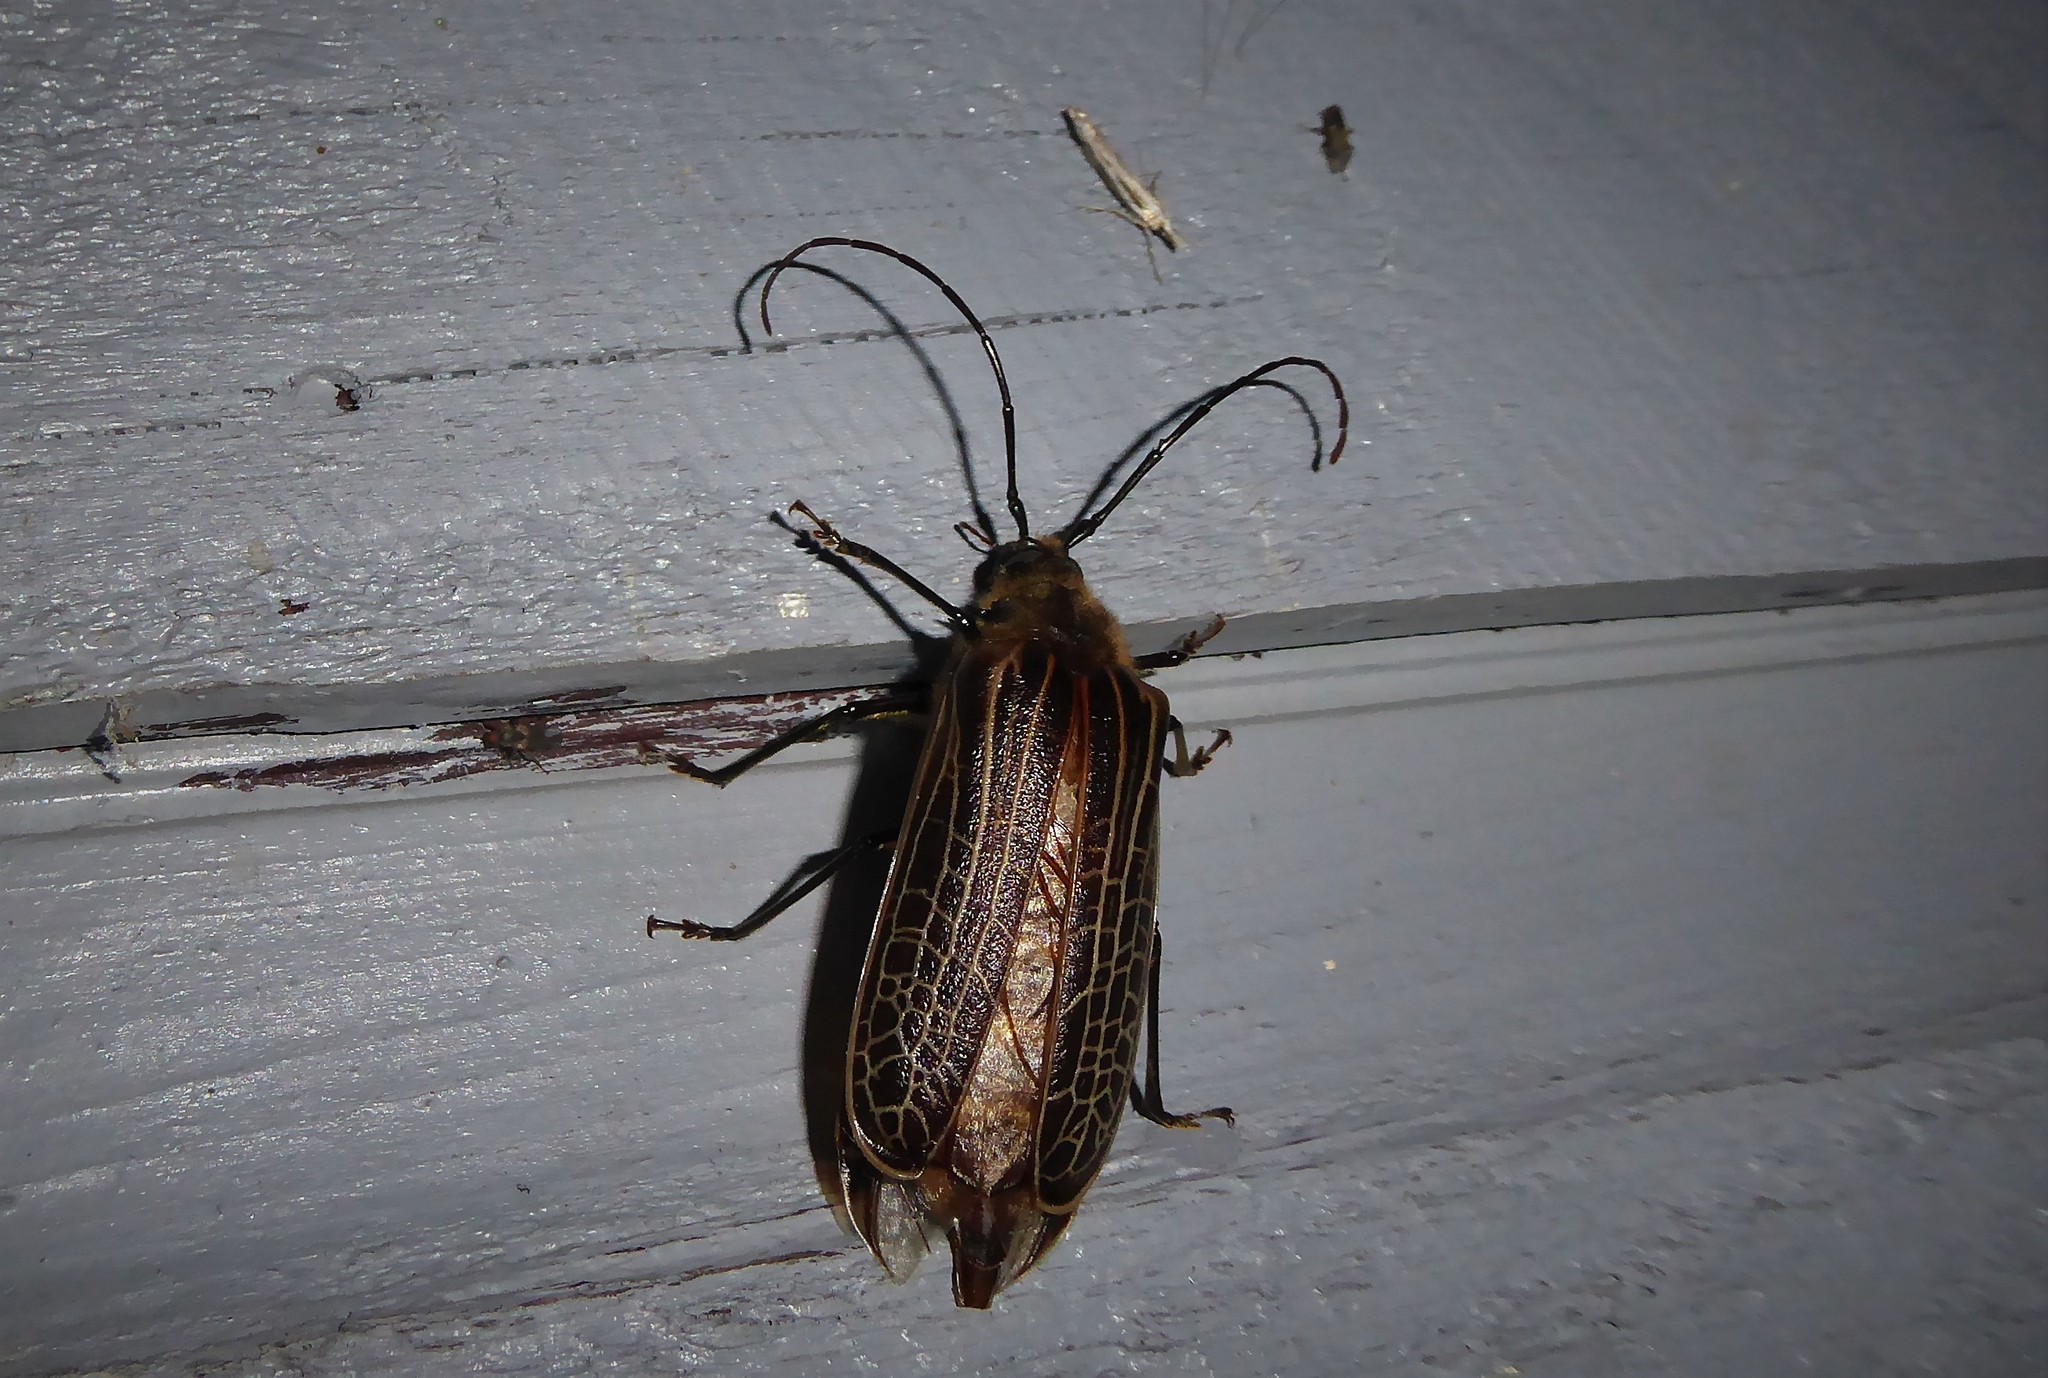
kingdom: Animalia
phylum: Arthropoda
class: Insecta
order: Coleoptera
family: Cerambycidae
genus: Prionoplus
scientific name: Prionoplus reticularis
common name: Huhu beetle
